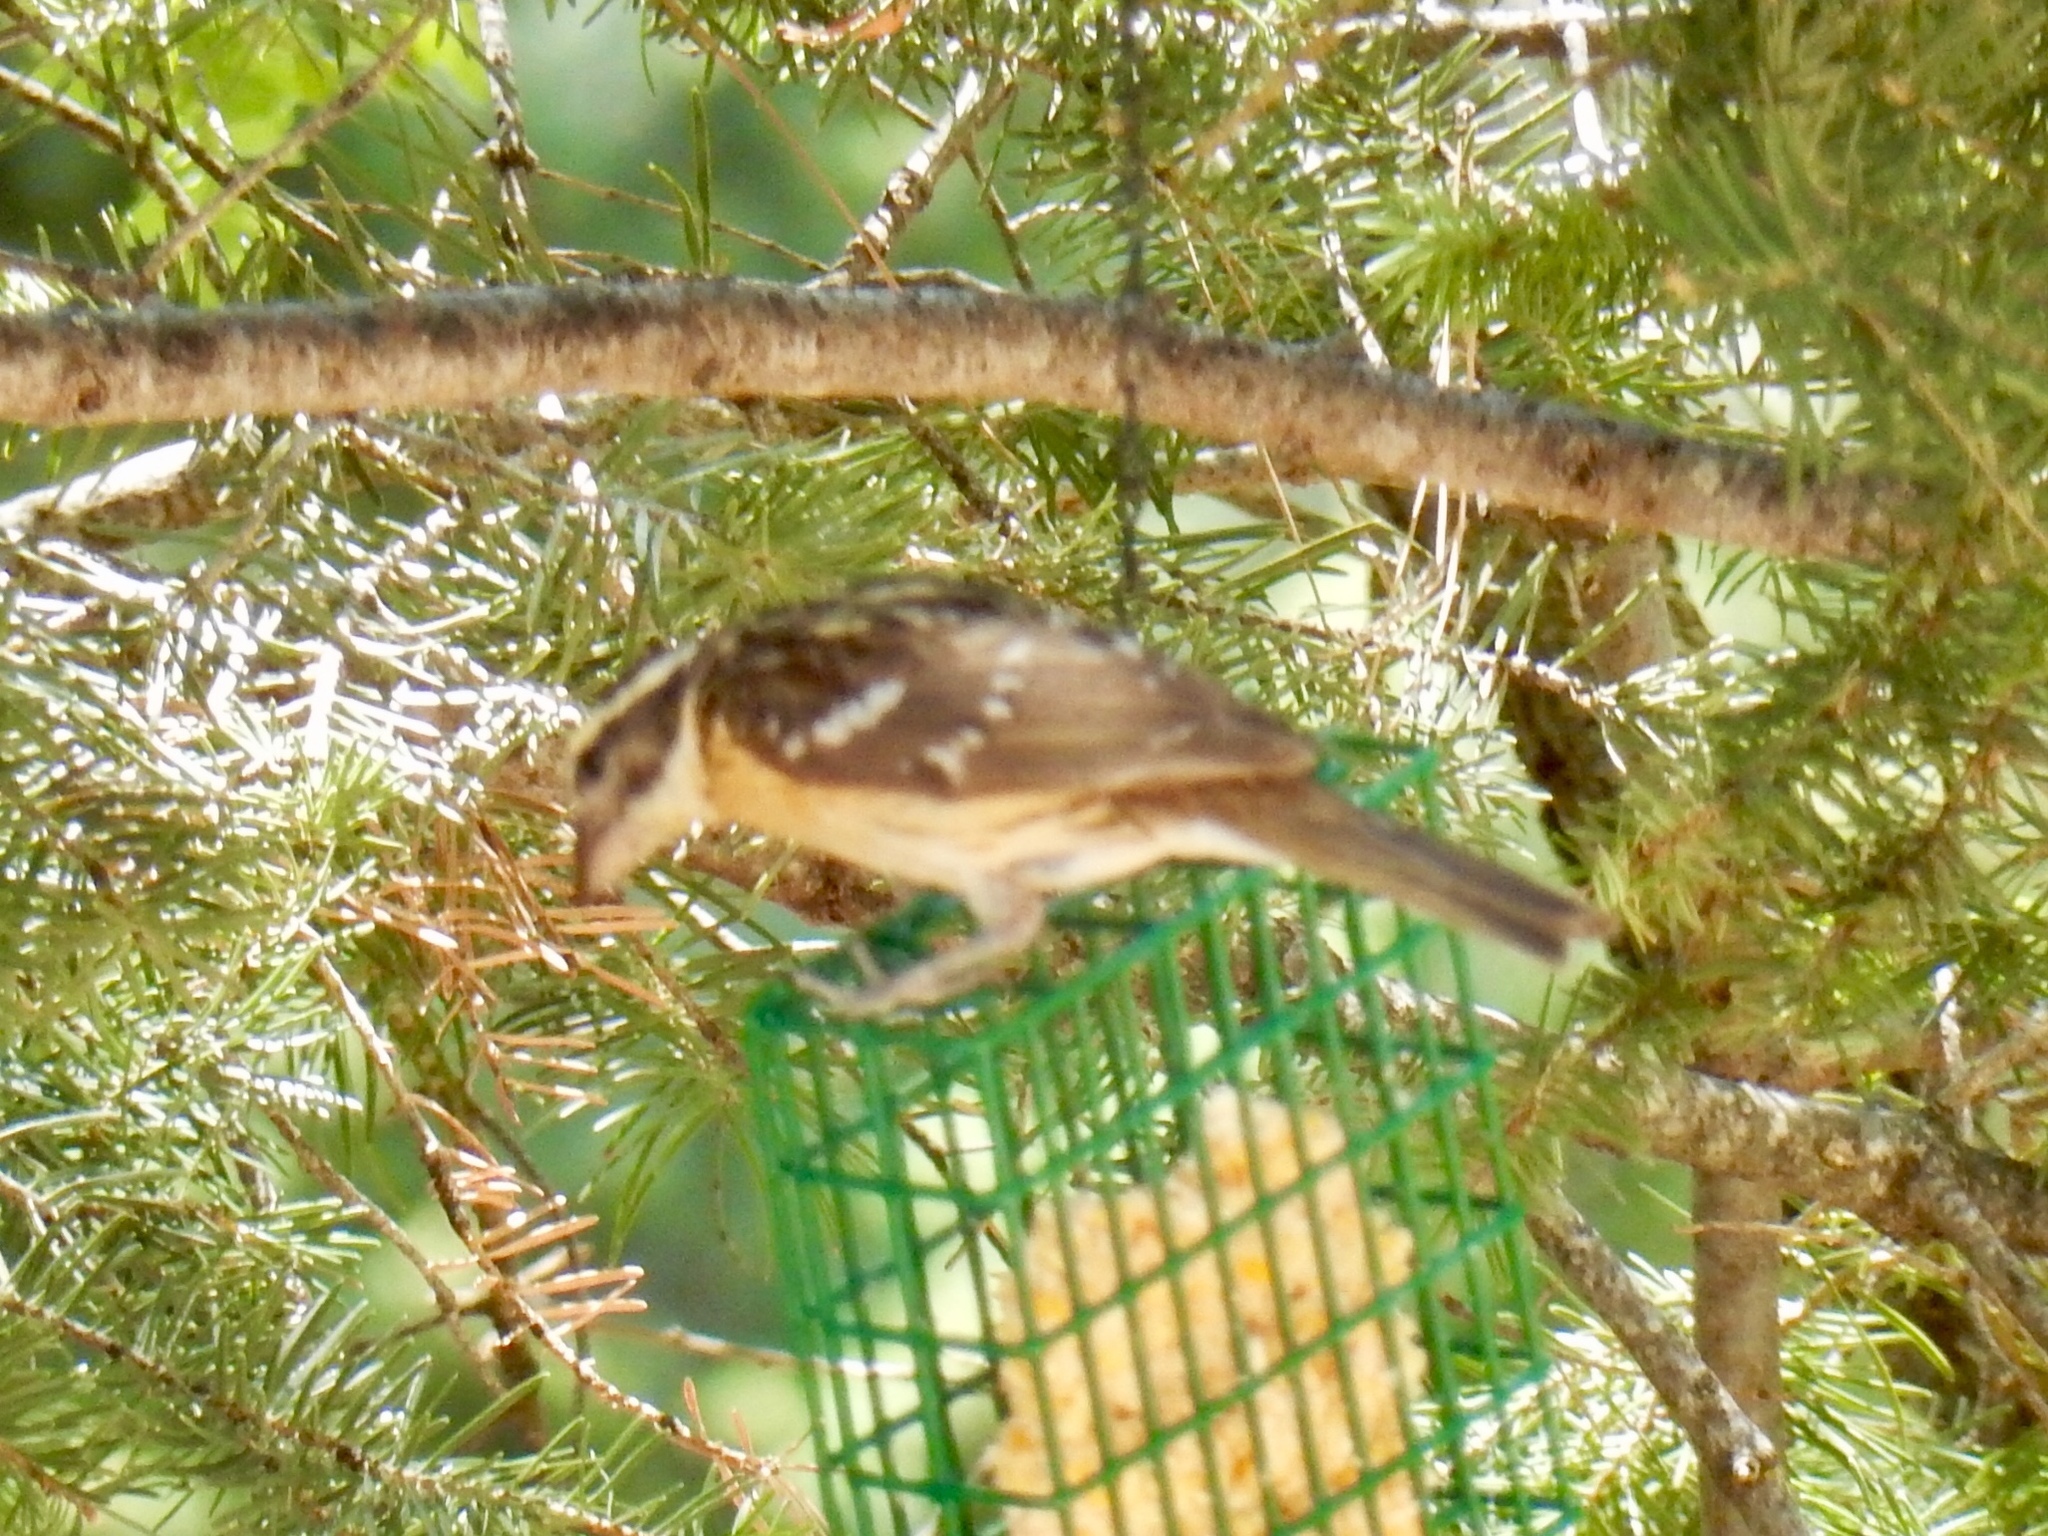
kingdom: Animalia
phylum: Chordata
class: Aves
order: Passeriformes
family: Cardinalidae
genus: Pheucticus
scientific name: Pheucticus melanocephalus
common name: Black-headed grosbeak
